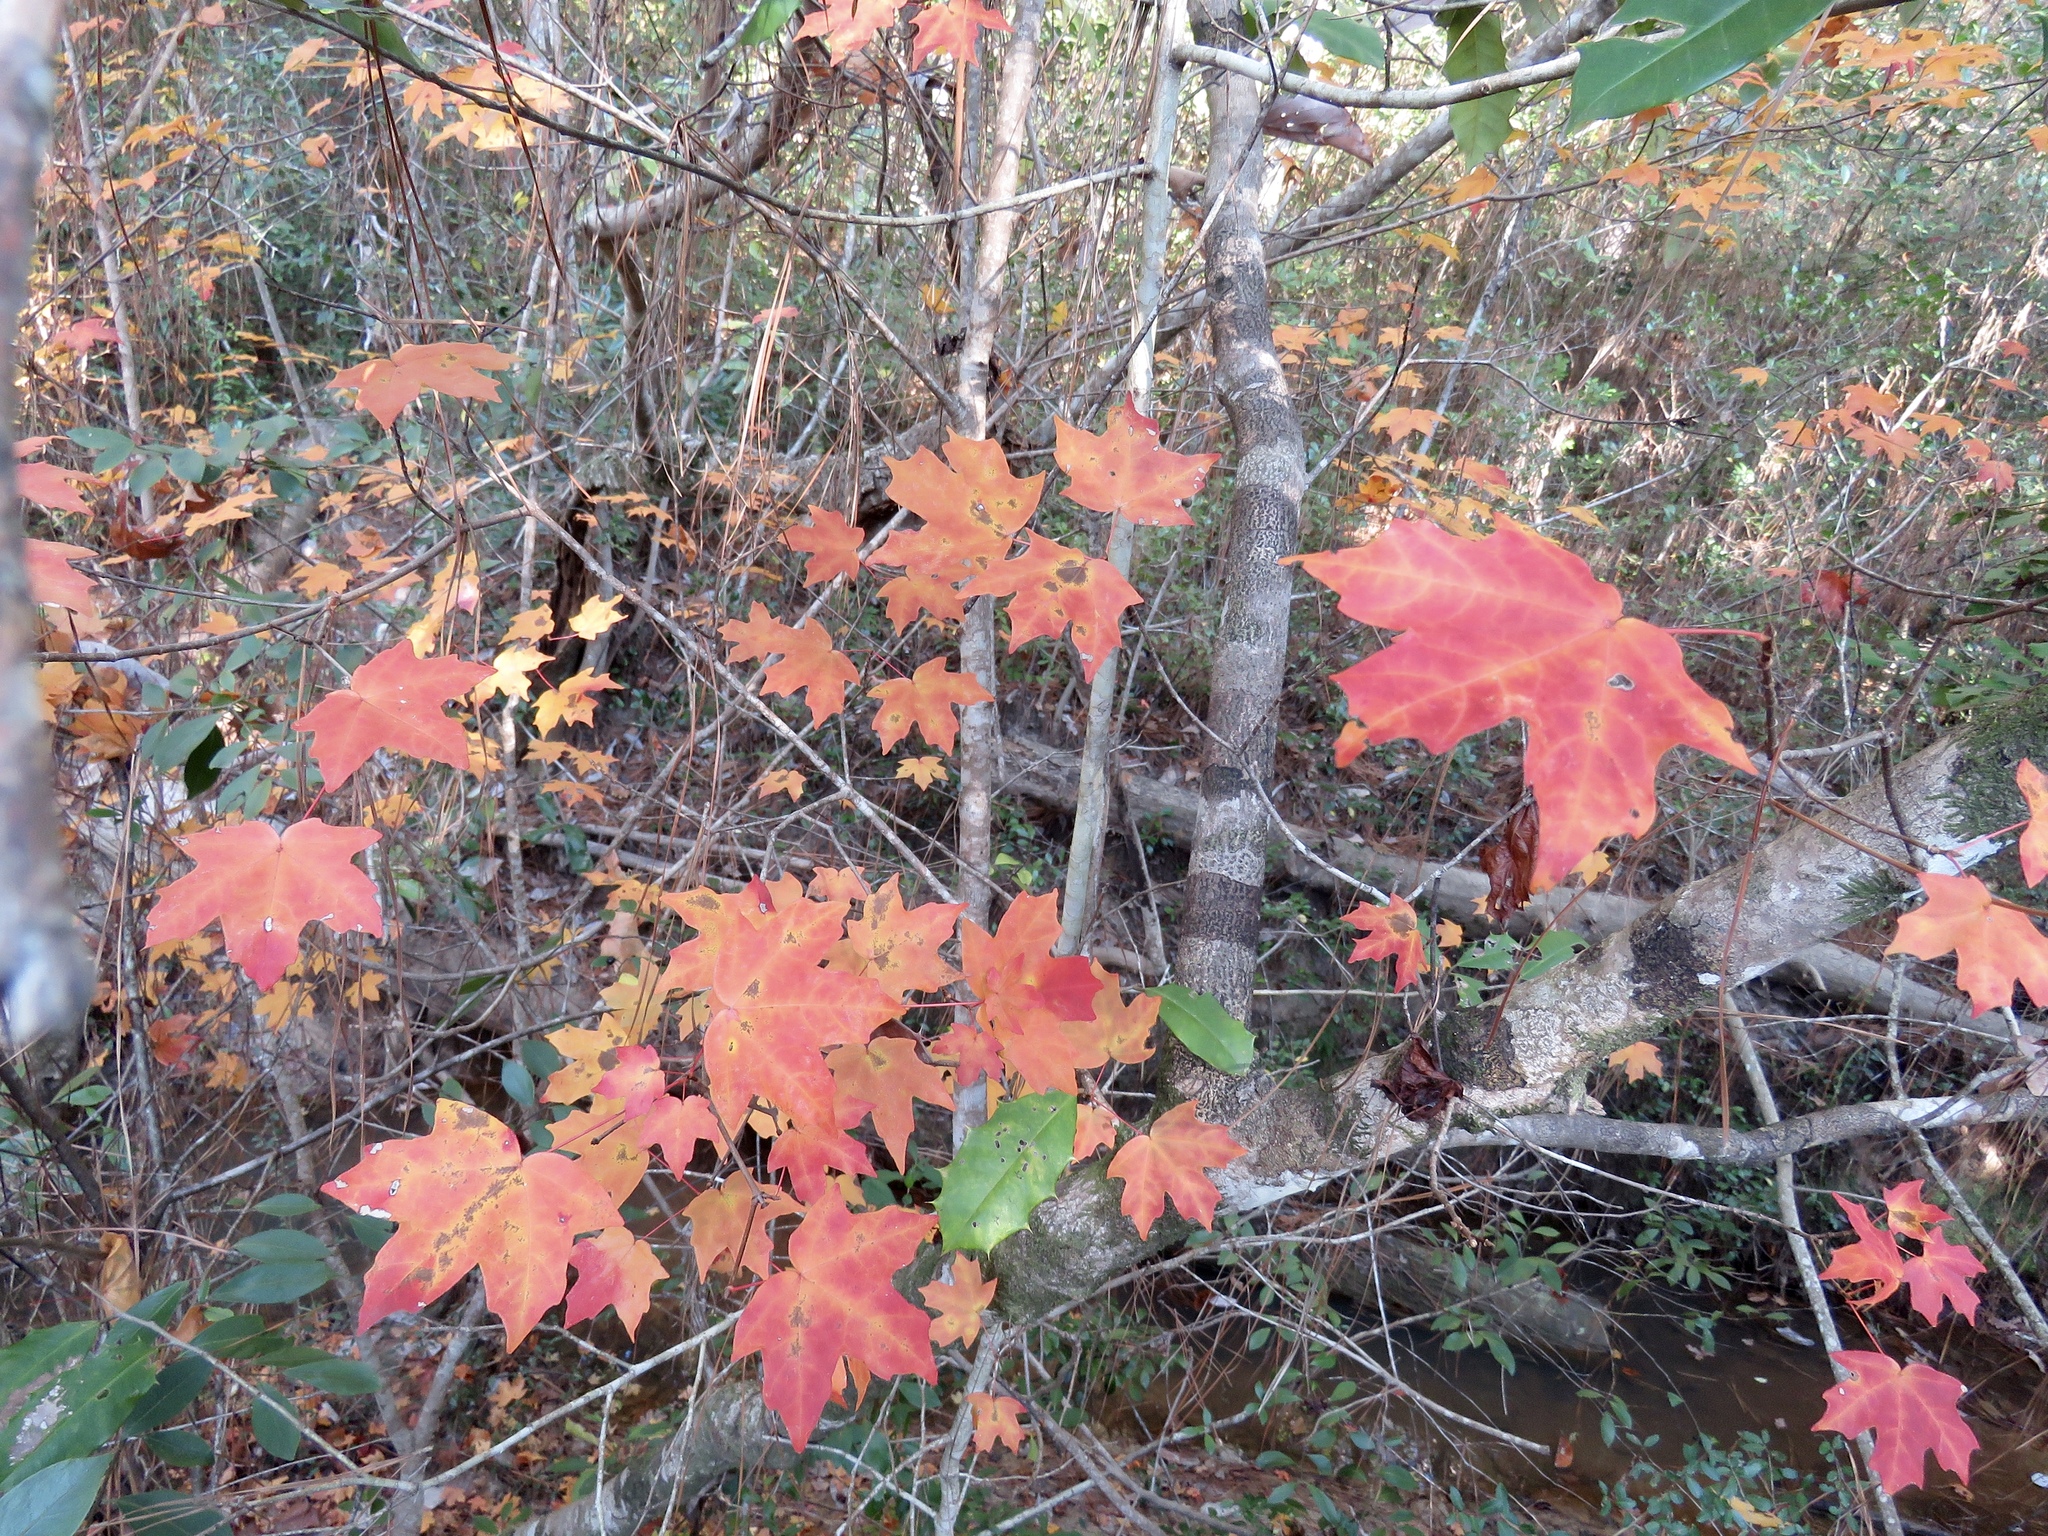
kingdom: Plantae
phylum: Tracheophyta
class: Magnoliopsida
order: Sapindales
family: Sapindaceae
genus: Acer
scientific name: Acer floridanum
